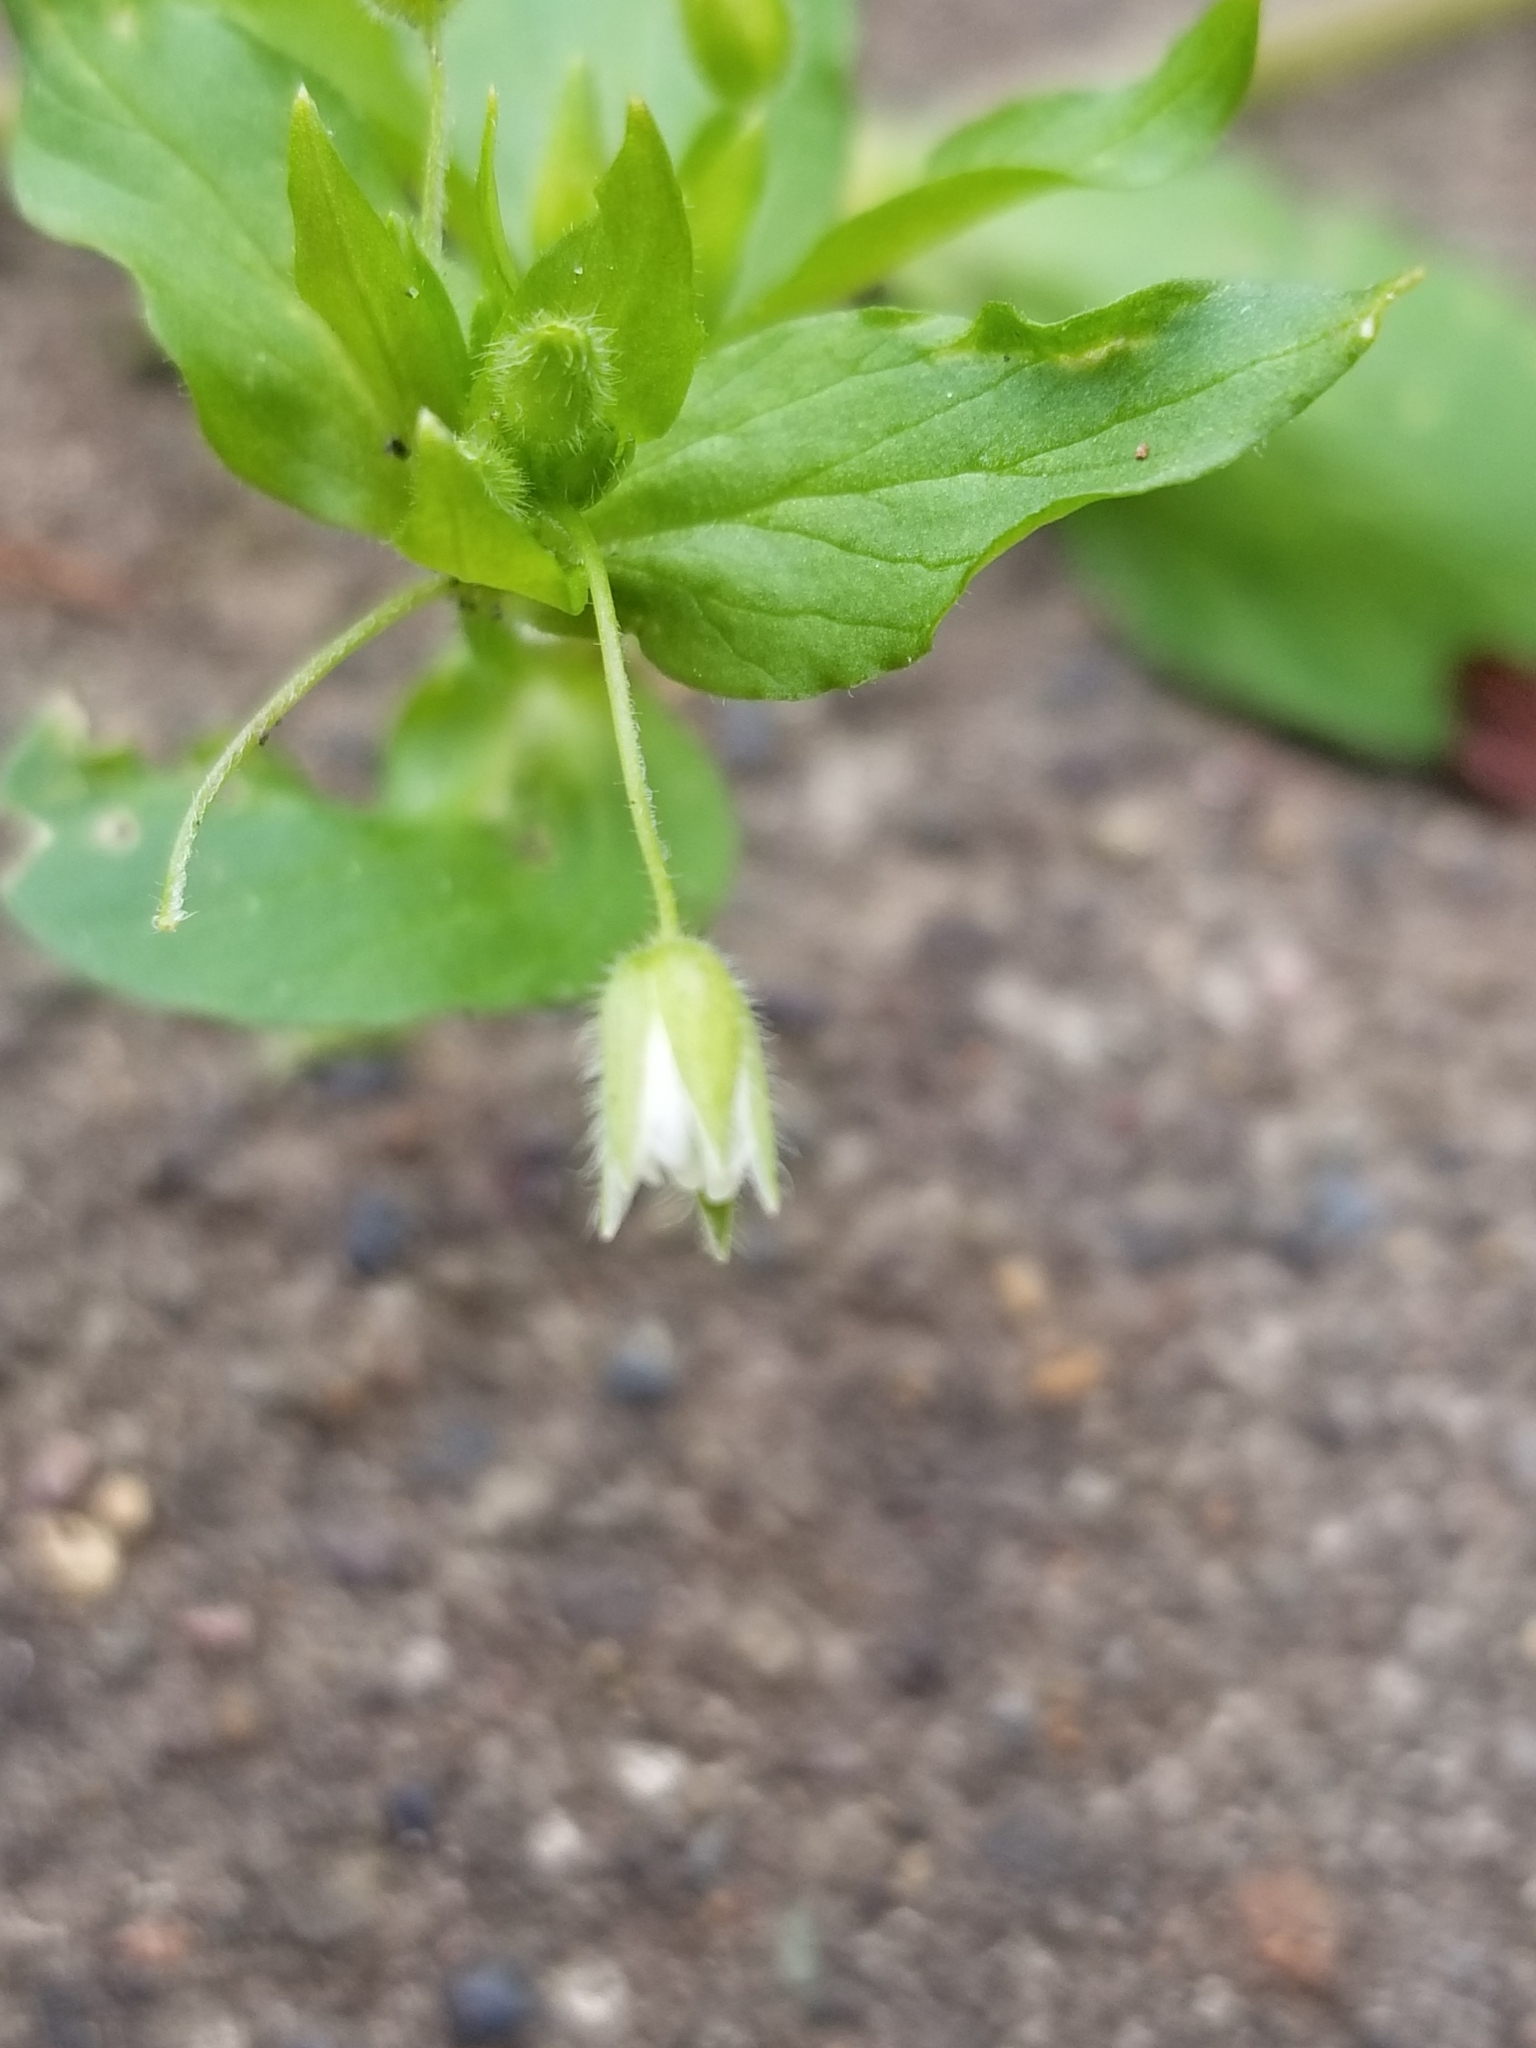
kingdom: Plantae
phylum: Tracheophyta
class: Magnoliopsida
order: Caryophyllales
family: Caryophyllaceae
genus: Stellaria
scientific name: Stellaria media
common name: Common chickweed
